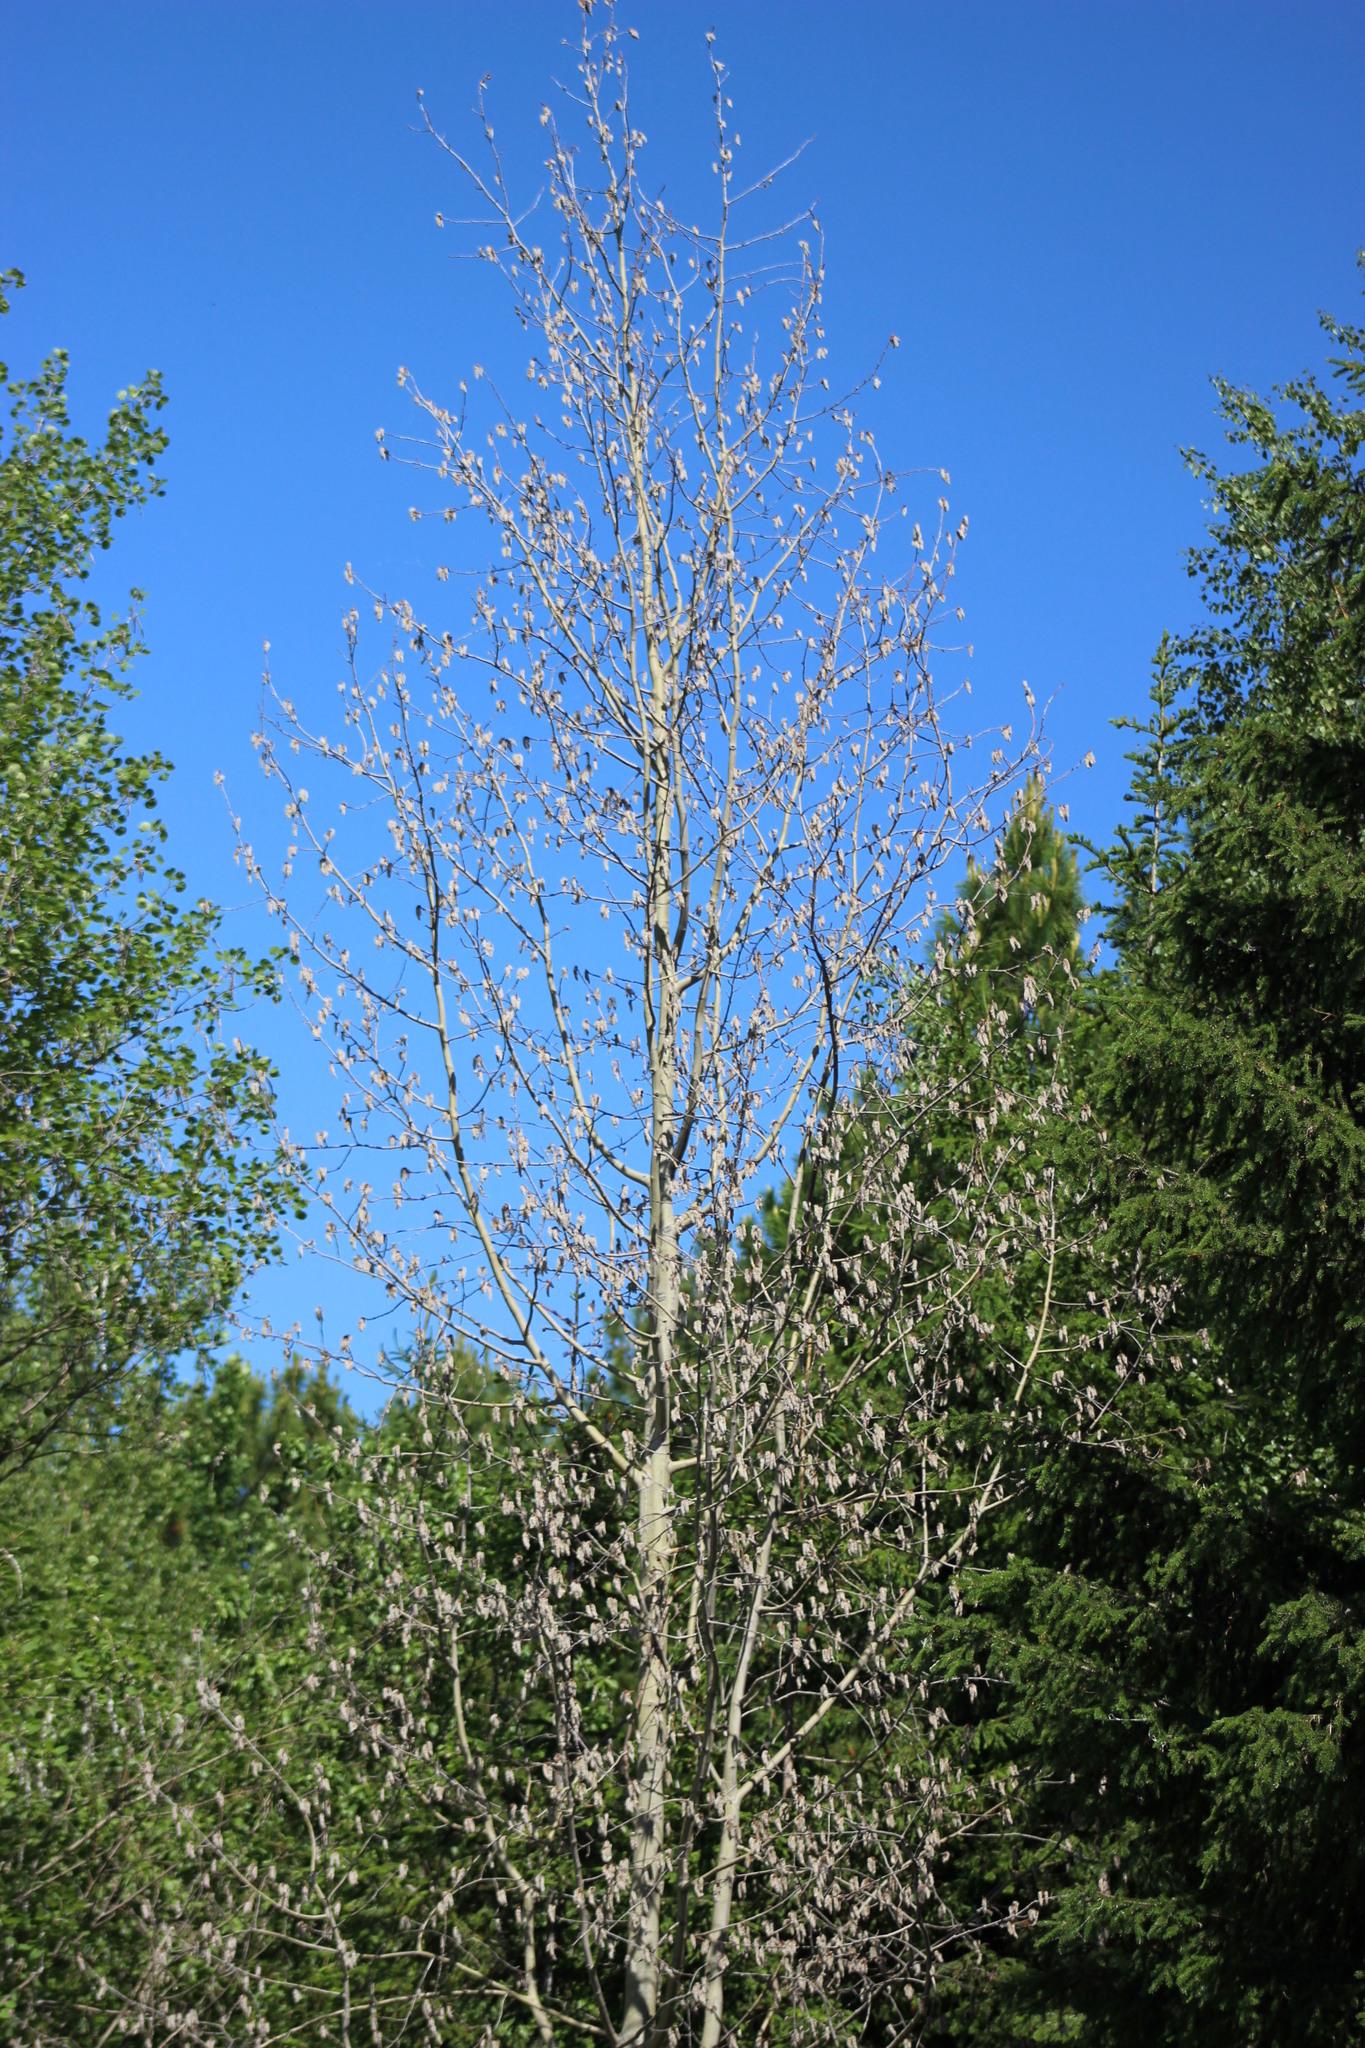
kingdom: Plantae
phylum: Tracheophyta
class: Magnoliopsida
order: Malpighiales
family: Salicaceae
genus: Populus
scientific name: Populus tremula
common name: European aspen
